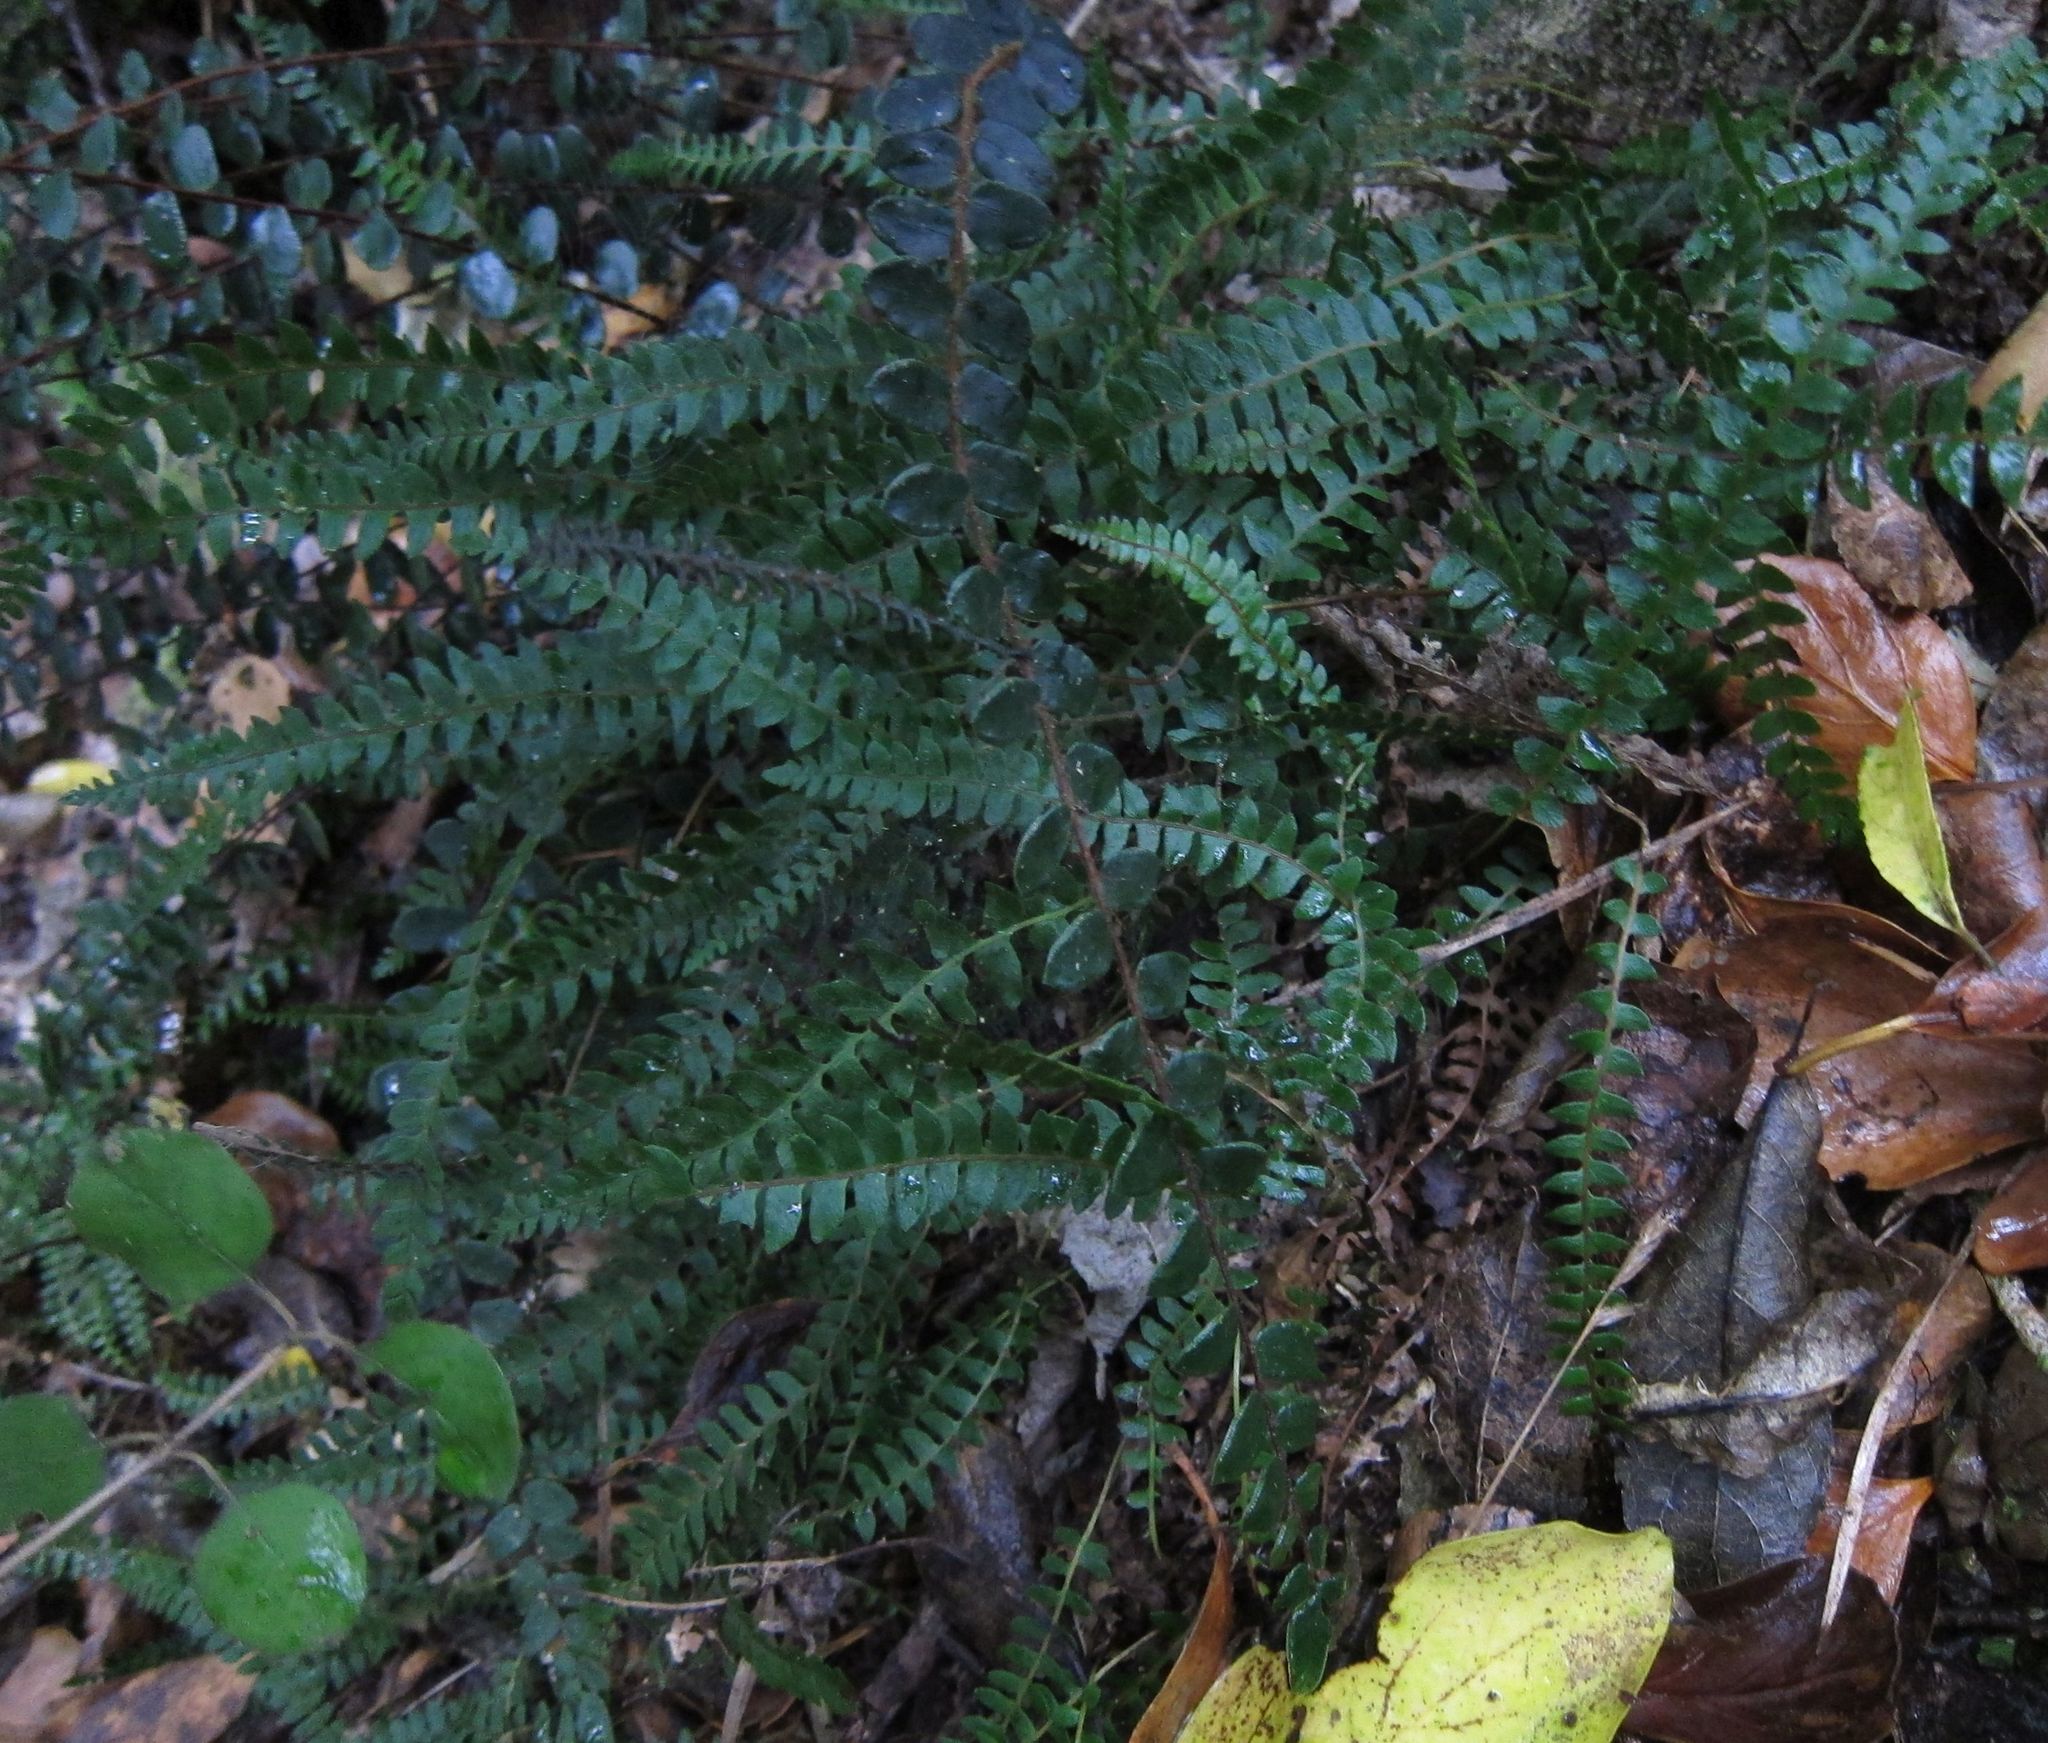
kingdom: Plantae
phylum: Tracheophyta
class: Polypodiopsida
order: Polypodiales
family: Blechnaceae
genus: Austroblechnum
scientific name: Austroblechnum penna-marina
